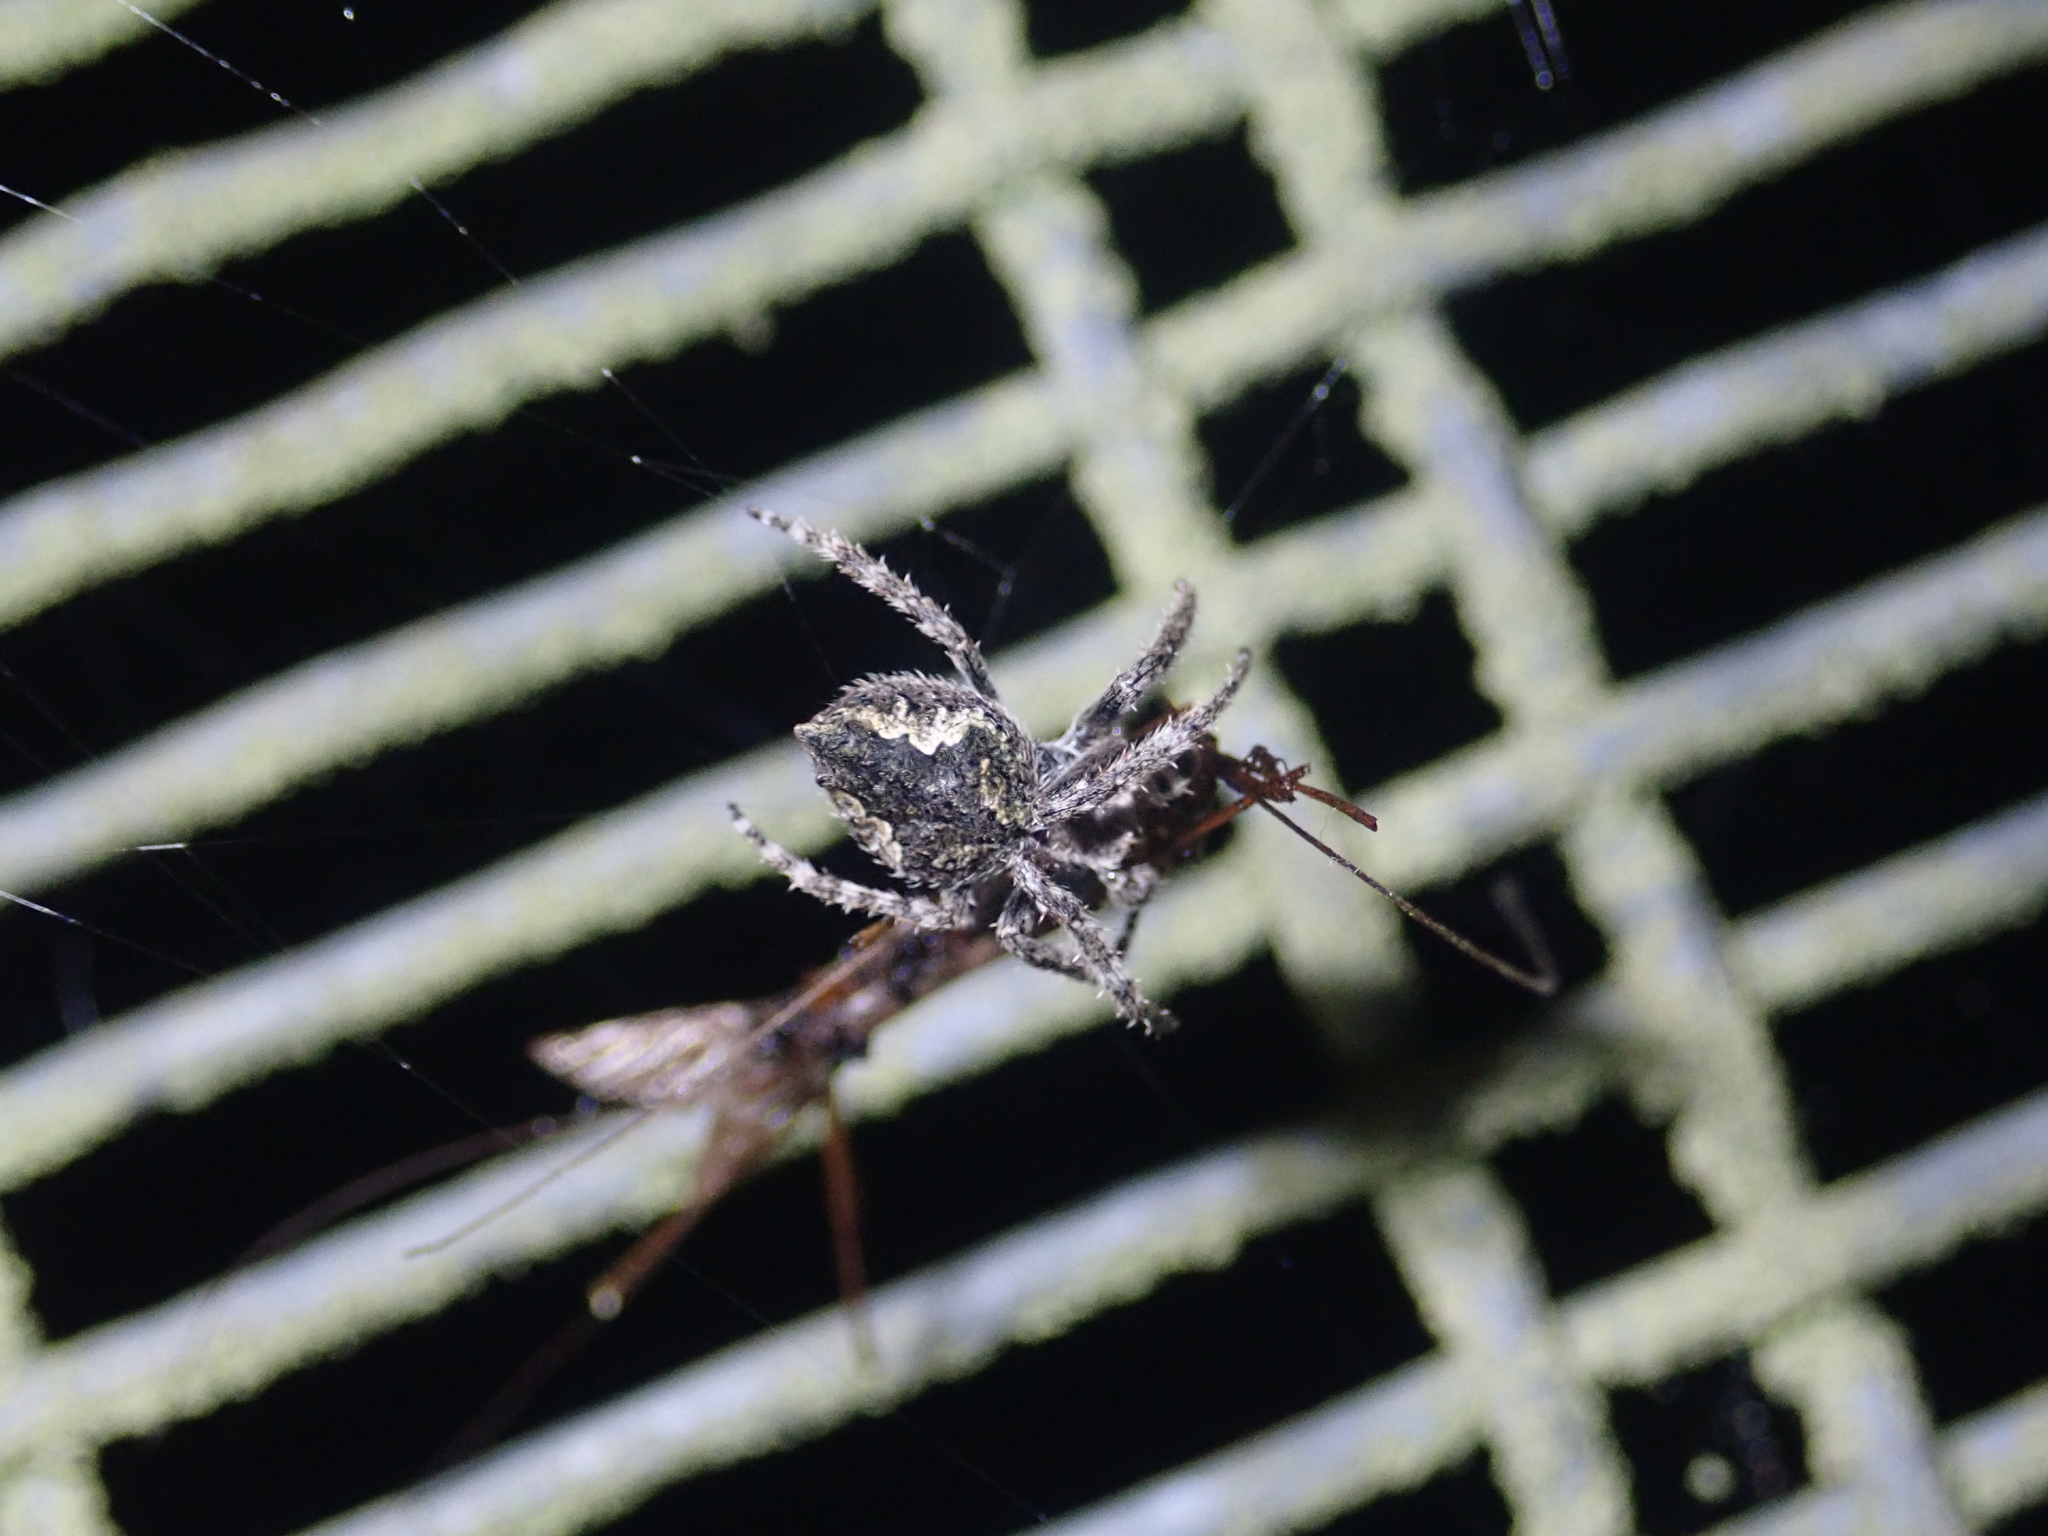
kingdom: Animalia
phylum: Arthropoda
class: Arachnida
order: Araneae
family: Araneidae
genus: Eriophora
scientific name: Eriophora pustulosa
